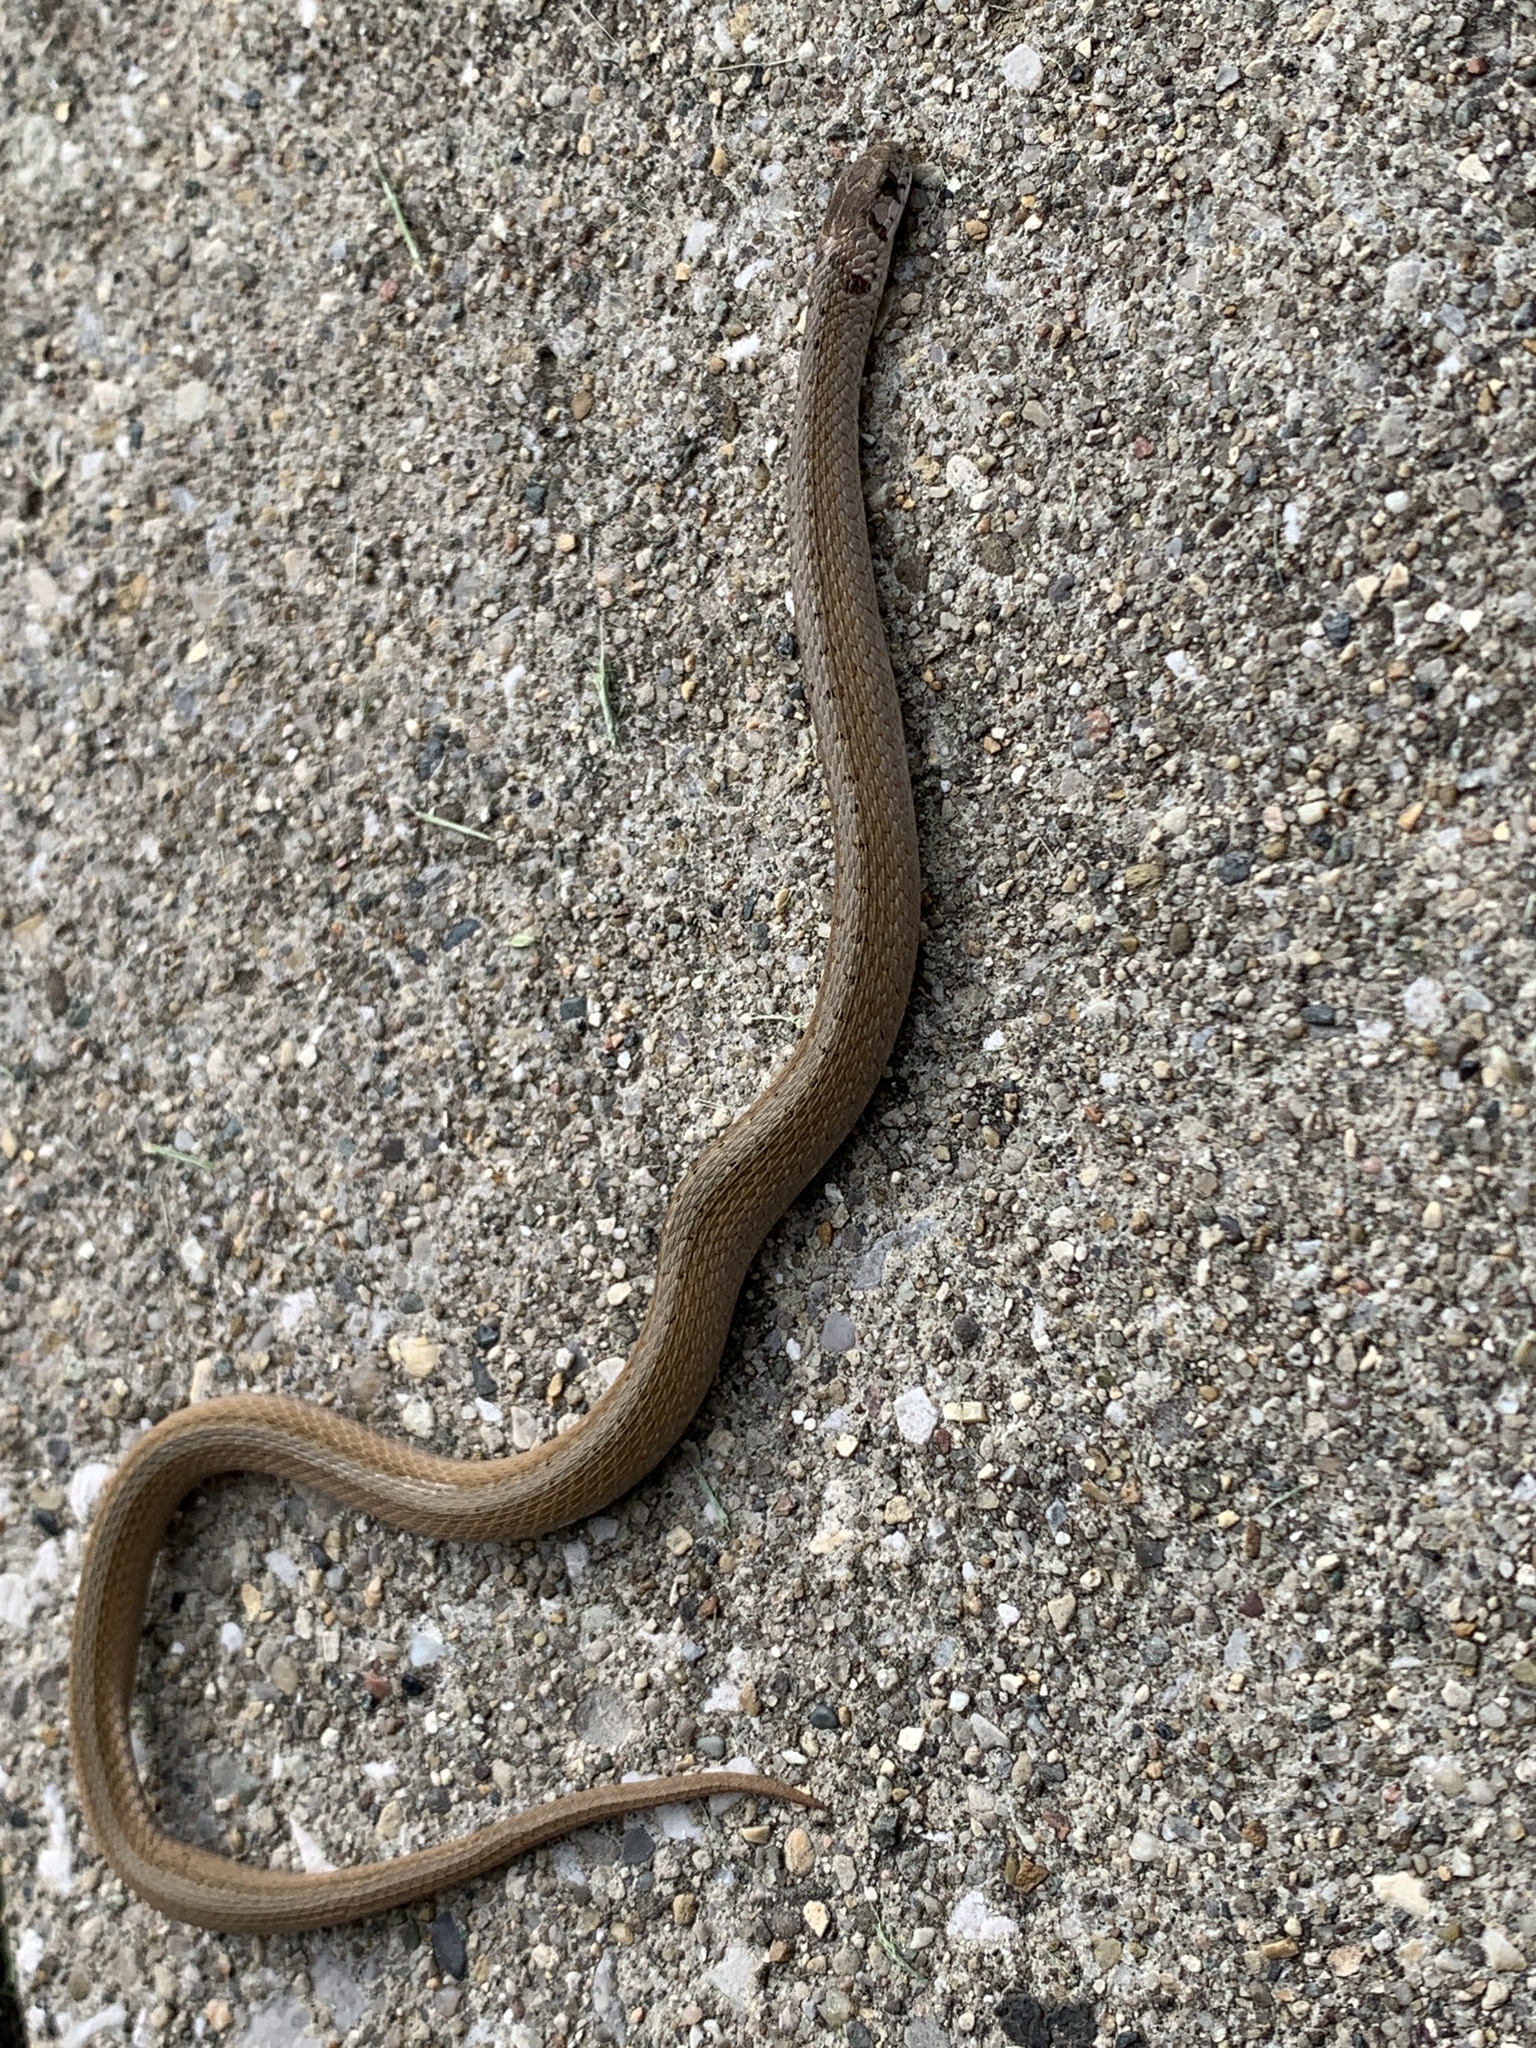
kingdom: Animalia
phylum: Chordata
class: Squamata
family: Colubridae
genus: Storeria
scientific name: Storeria dekayi
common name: (dekay’s) brown snake
